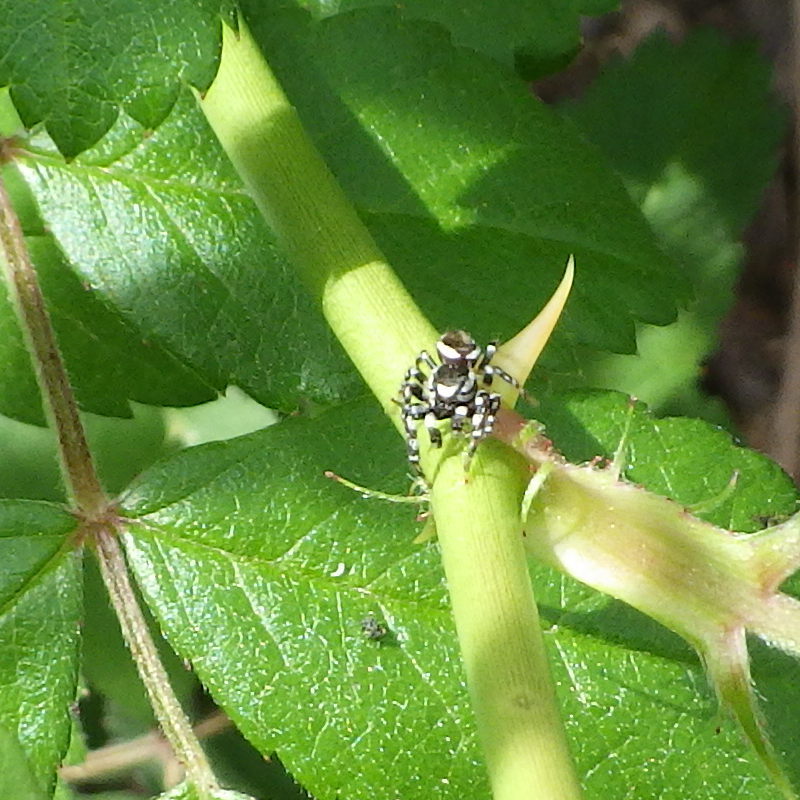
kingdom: Animalia
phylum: Arthropoda
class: Arachnida
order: Araneae
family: Salticidae
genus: Pelegrina
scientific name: Pelegrina proterva
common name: Common white-cheeked jumping spider
